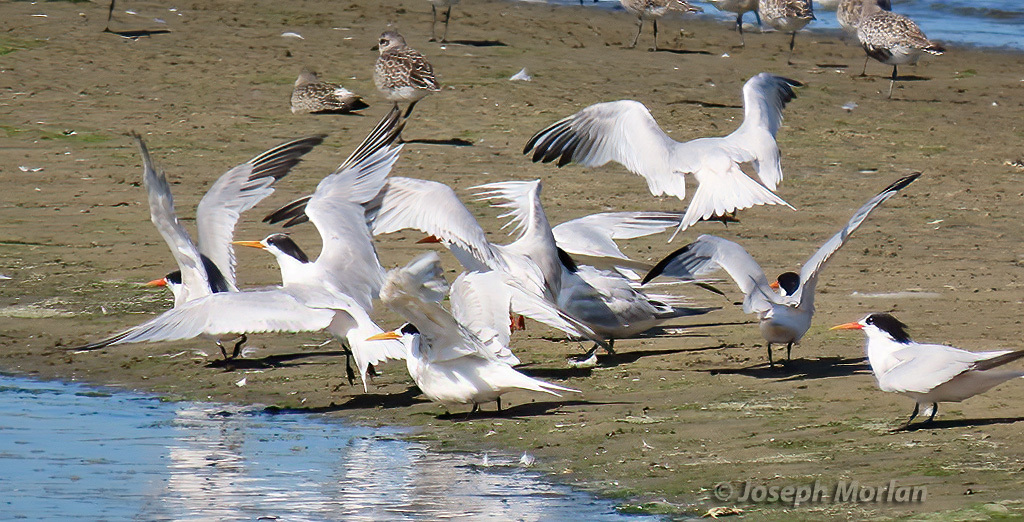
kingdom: Animalia
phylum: Chordata
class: Aves
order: Charadriiformes
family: Laridae
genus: Thalasseus
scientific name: Thalasseus elegans
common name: Elegant tern
